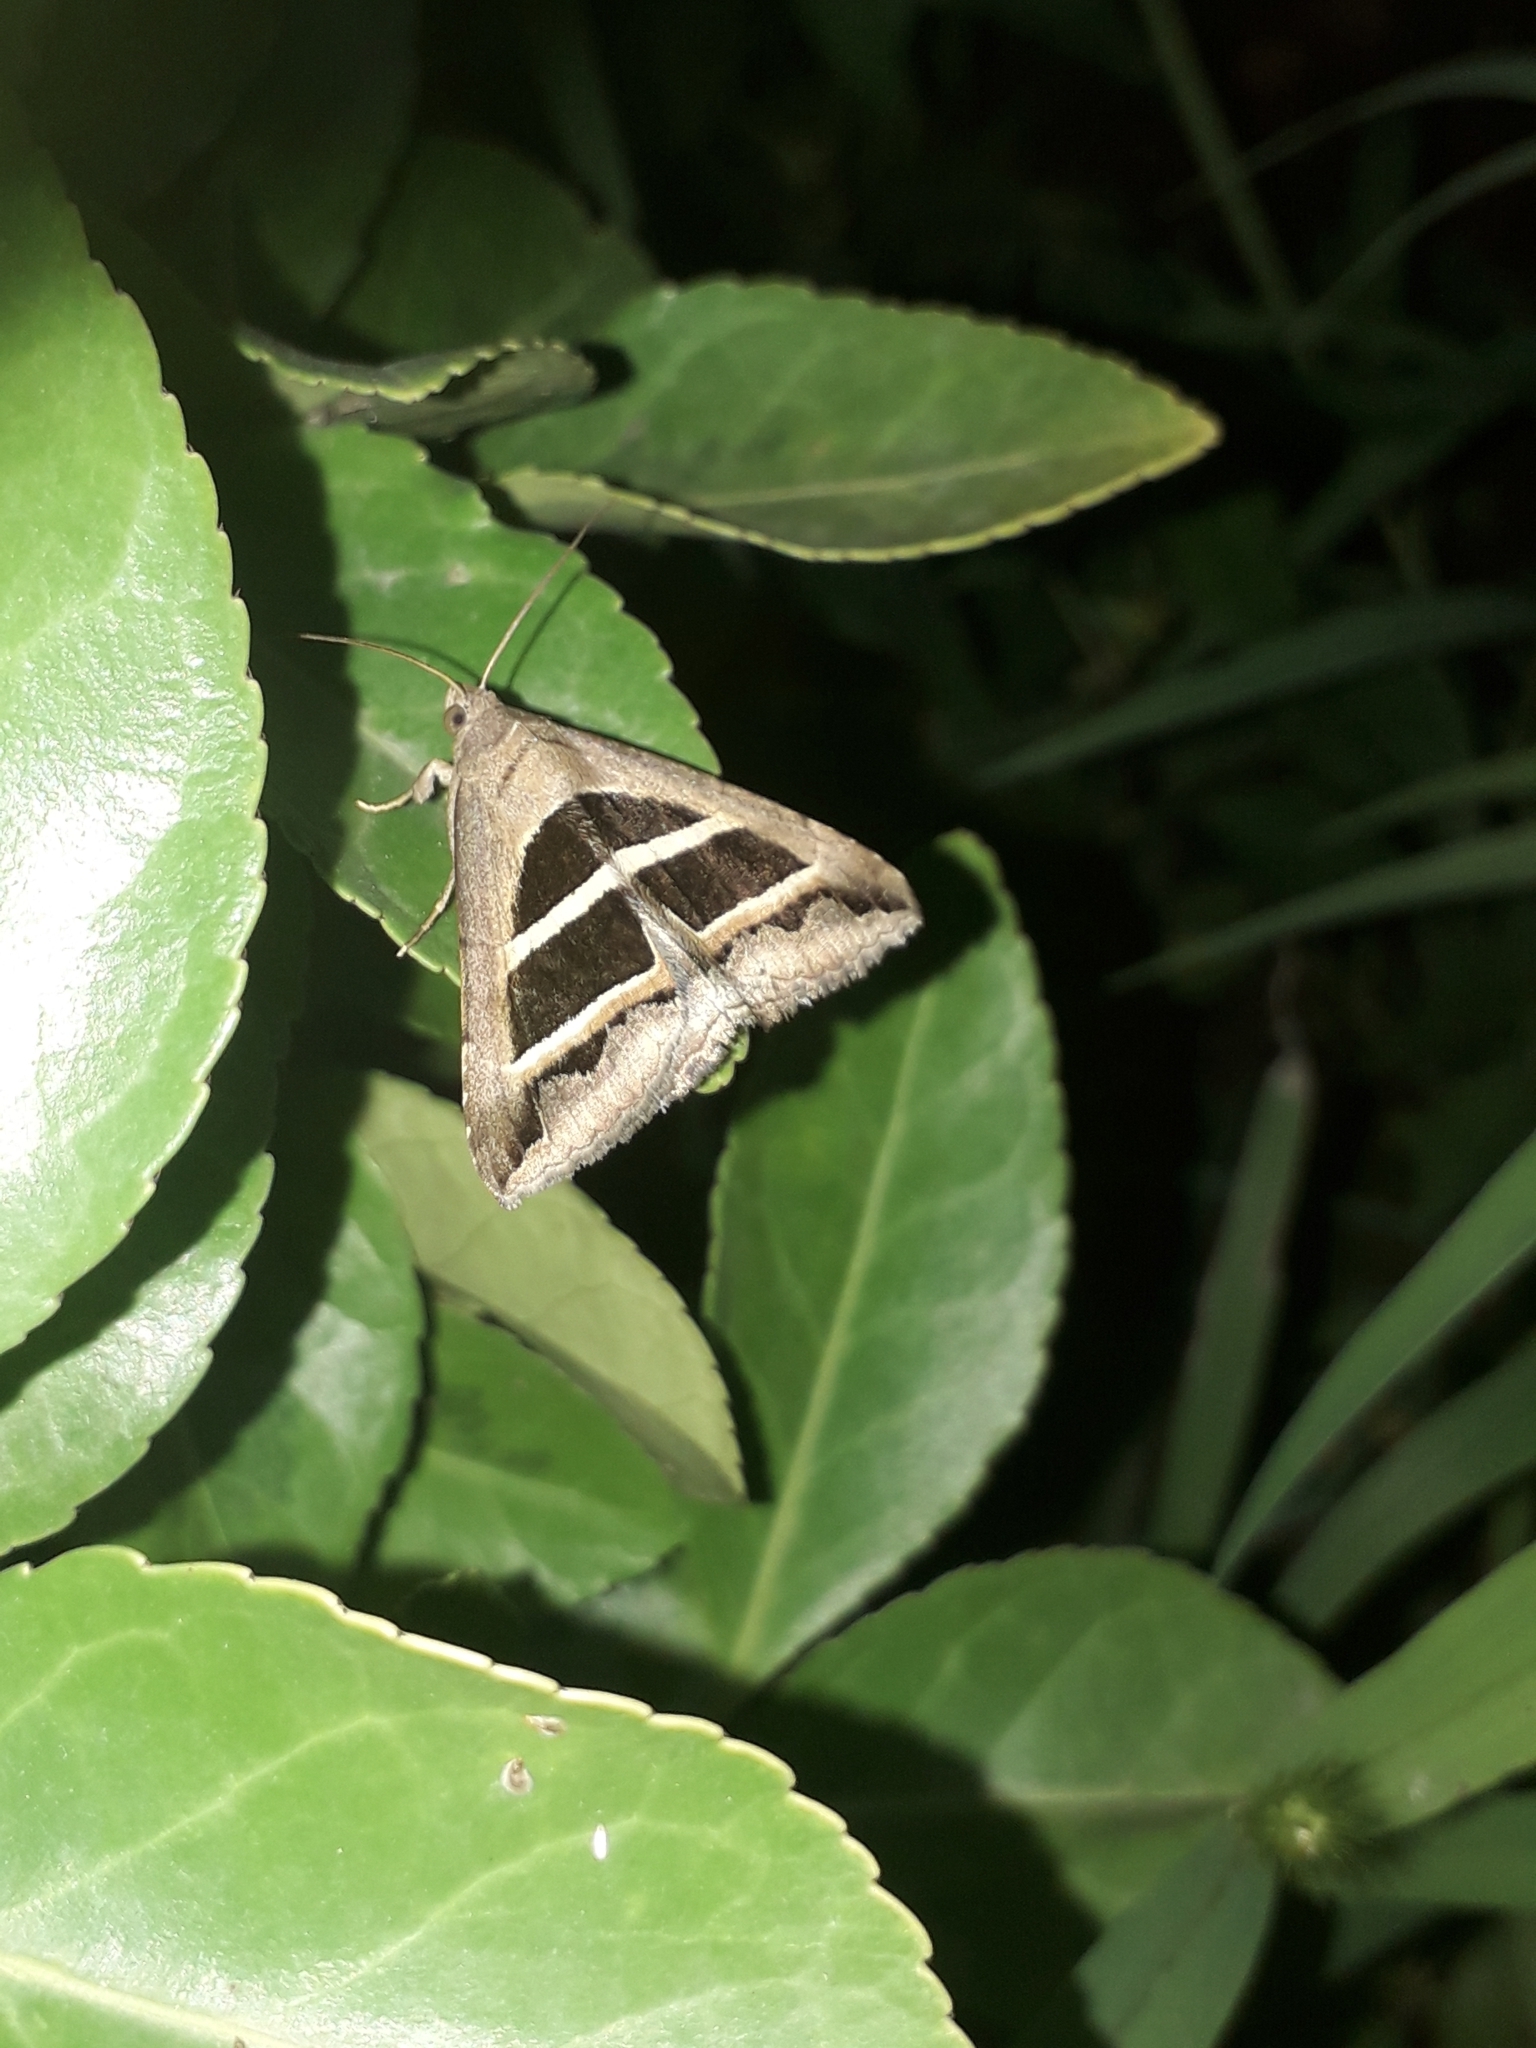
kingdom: Animalia
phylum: Arthropoda
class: Insecta
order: Lepidoptera
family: Erebidae
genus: Grammodes
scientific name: Grammodes bifasciata
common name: Parallel lines
